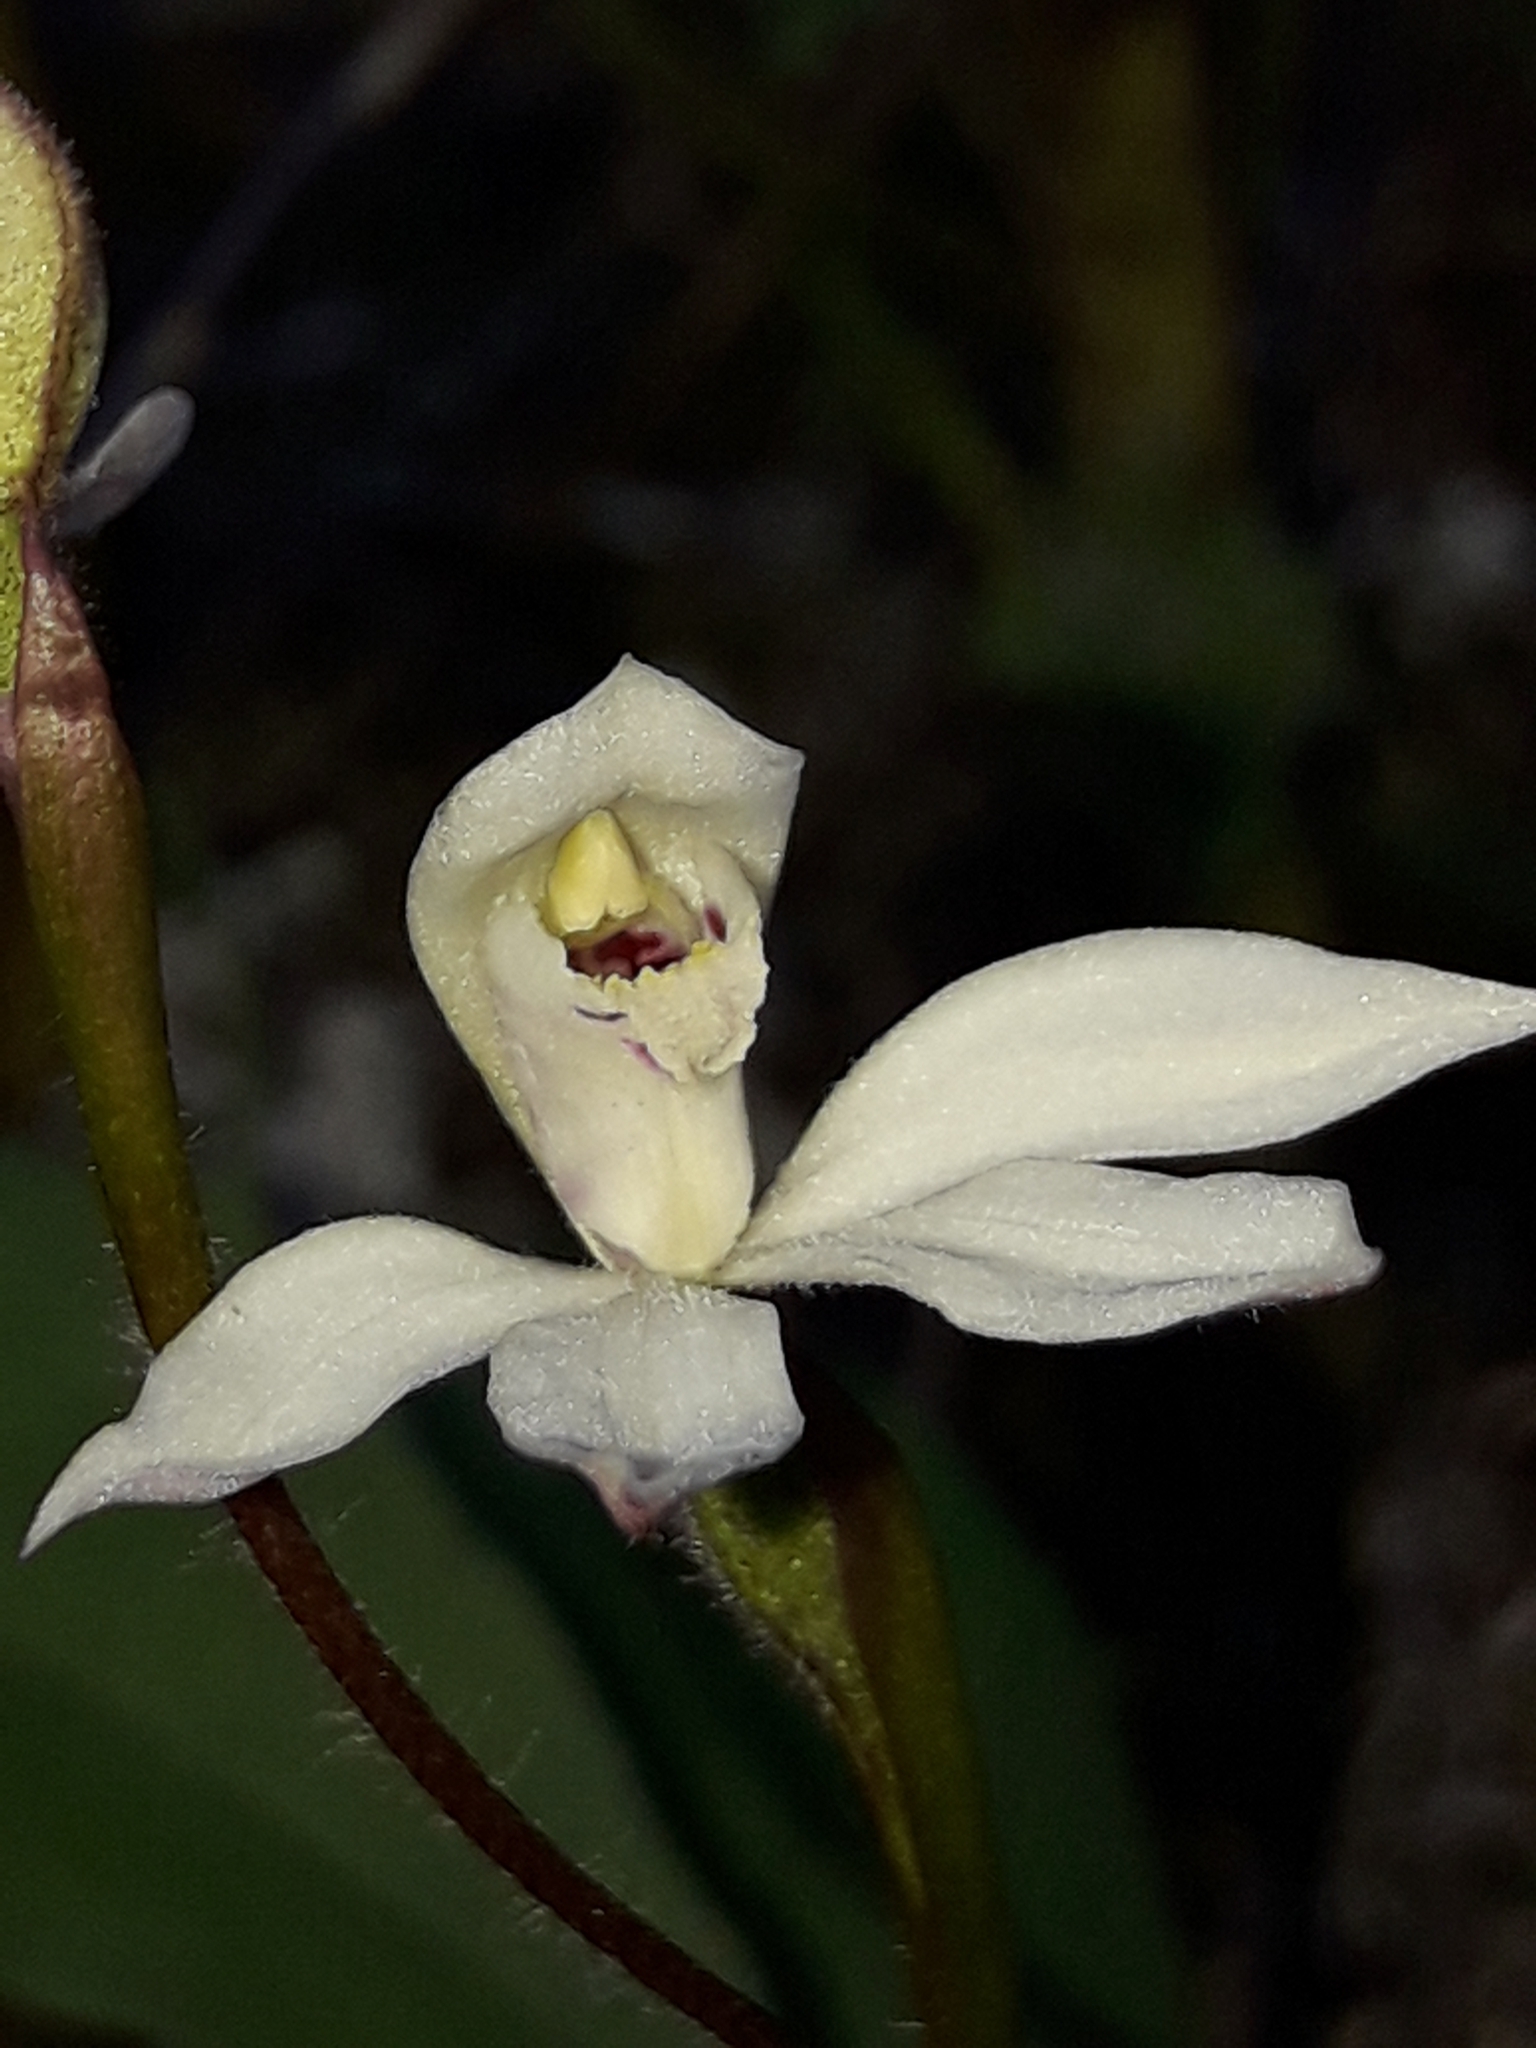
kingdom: Plantae
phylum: Tracheophyta
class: Liliopsida
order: Asparagales
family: Orchidaceae
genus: Caladenia
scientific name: Caladenia lyallii
